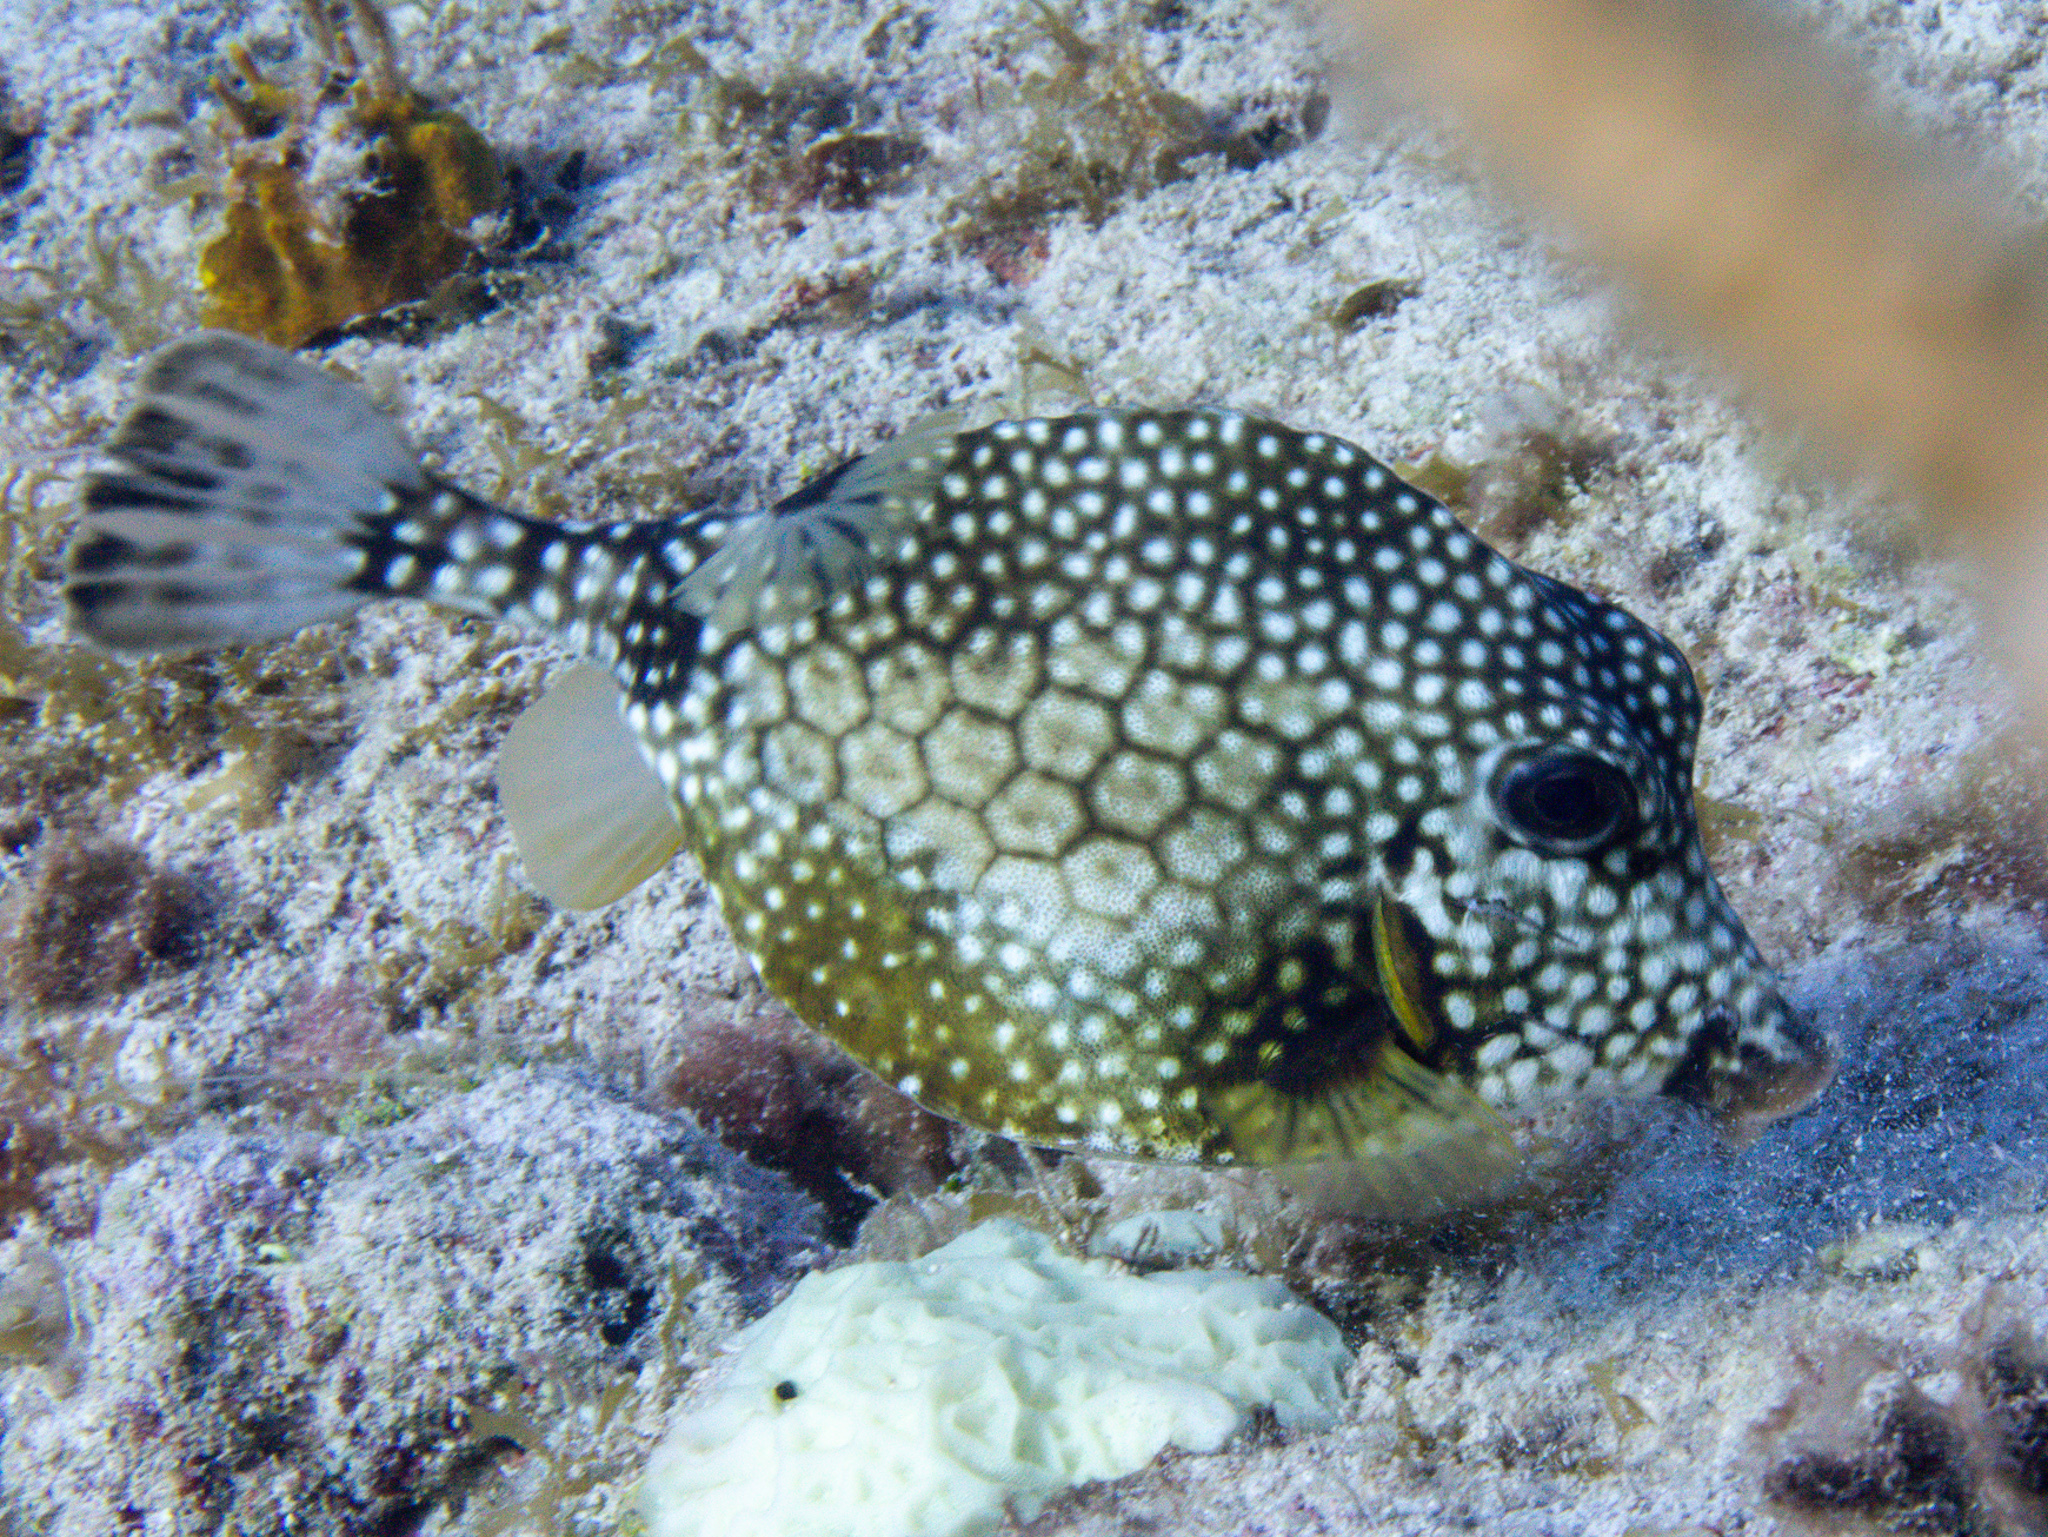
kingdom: Animalia
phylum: Chordata
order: Tetraodontiformes
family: Ostraciidae
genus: Lactophrys
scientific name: Lactophrys triqueter
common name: Smooth trunkfish
